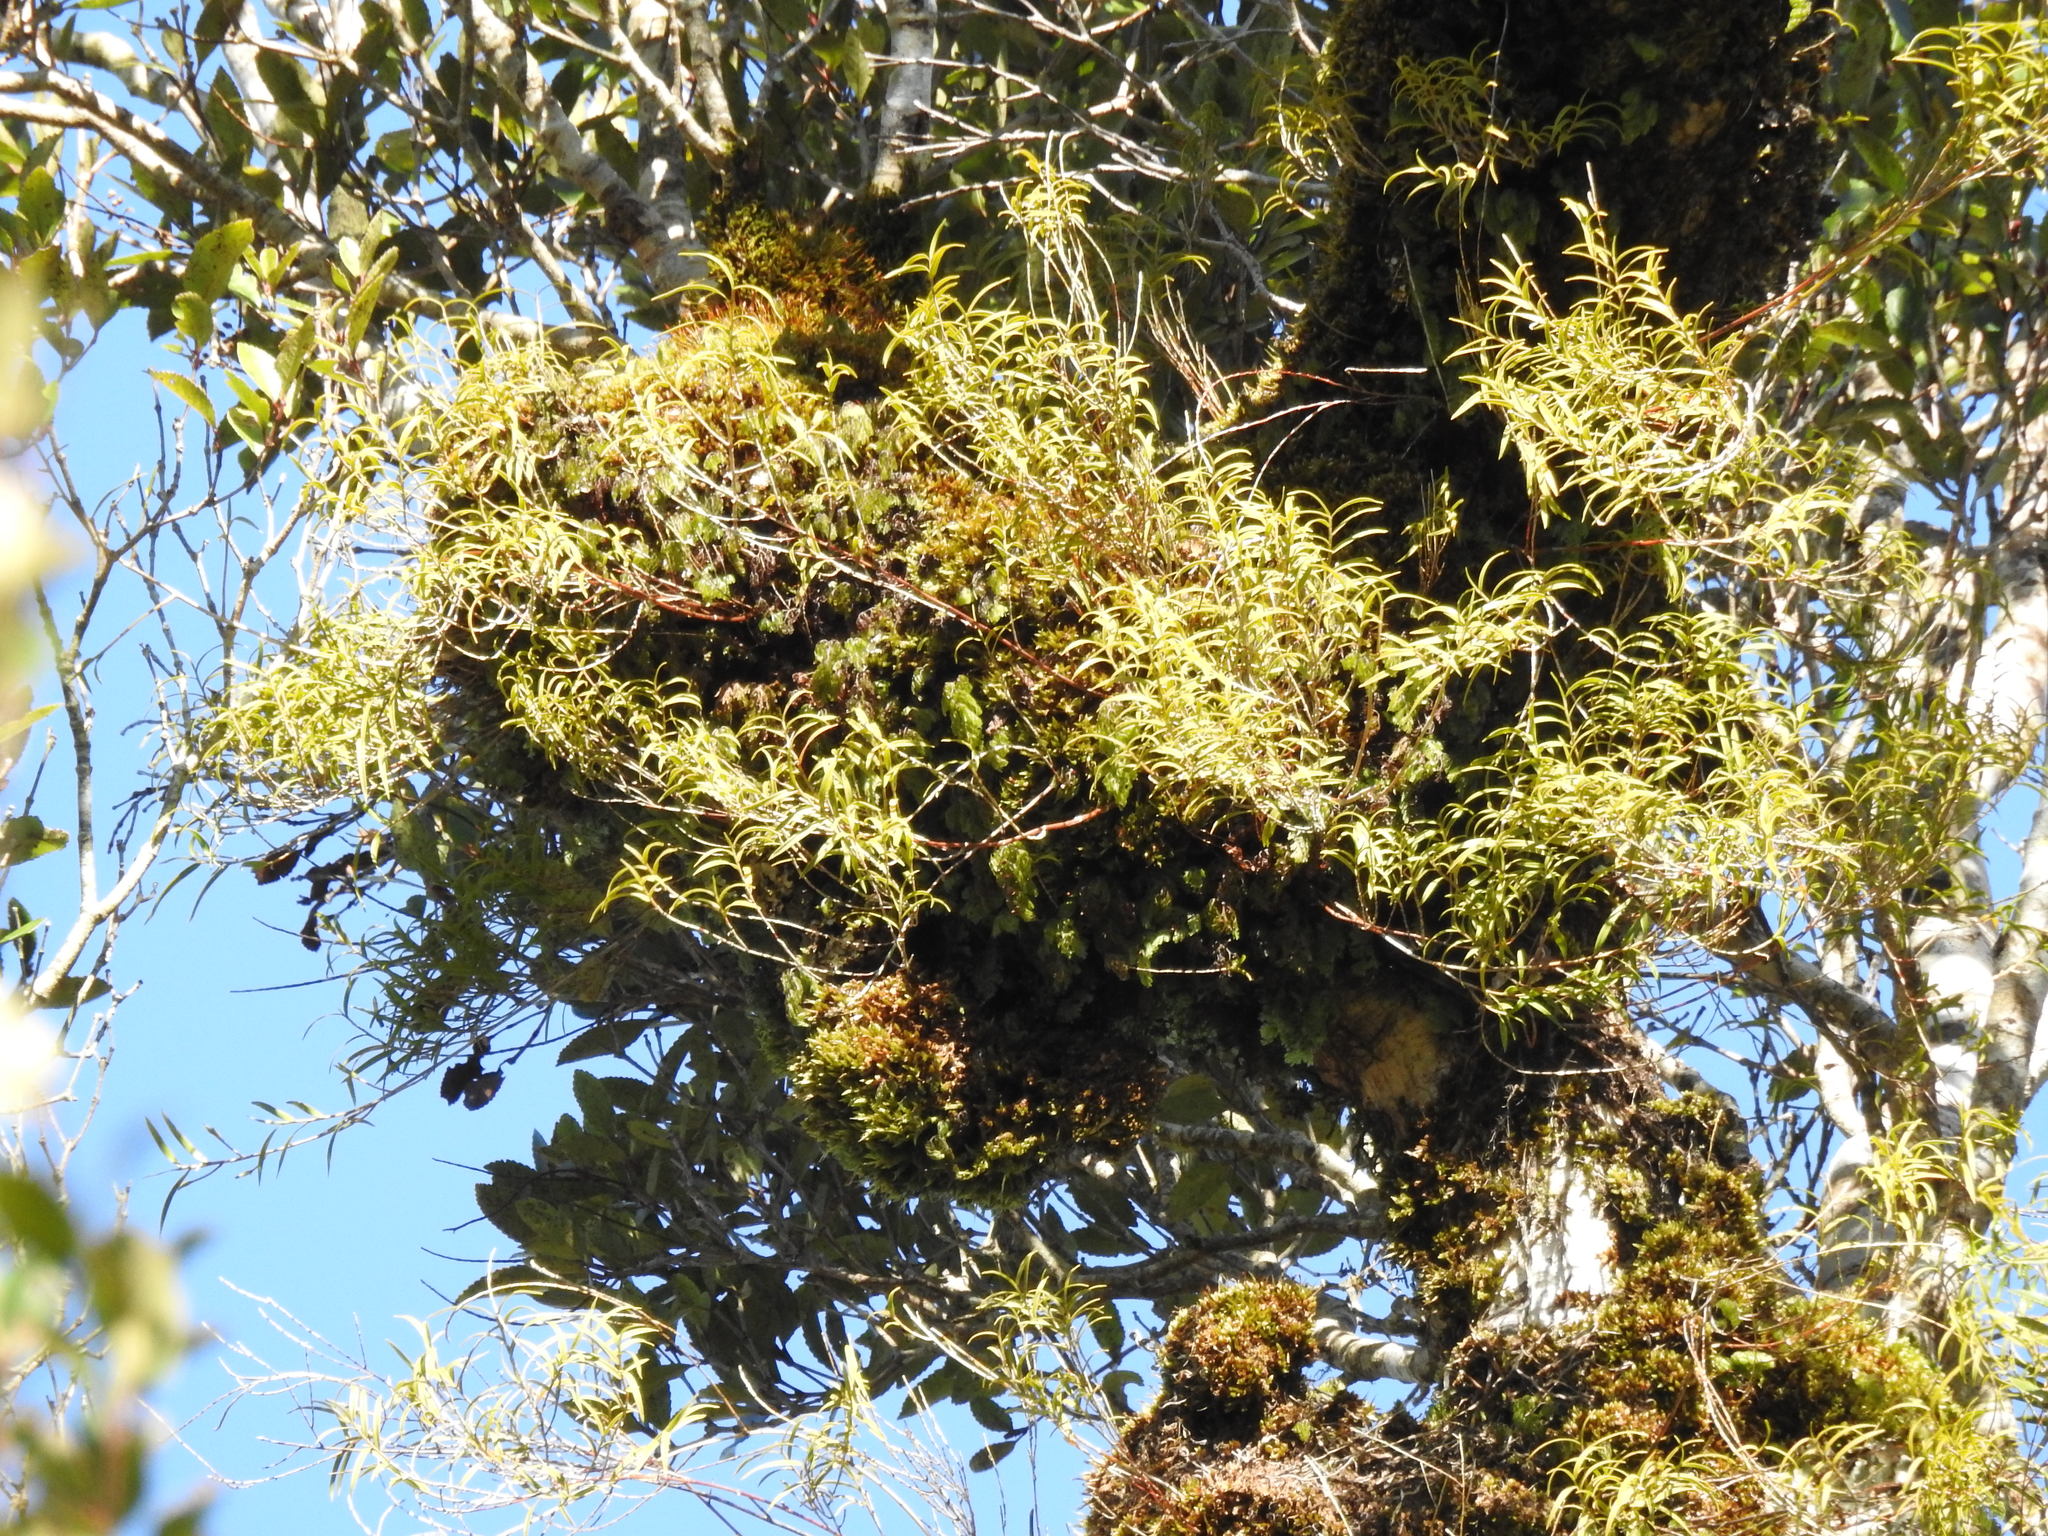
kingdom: Plantae
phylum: Tracheophyta
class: Liliopsida
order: Asparagales
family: Orchidaceae
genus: Dendrobium
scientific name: Dendrobium cunninghamii
